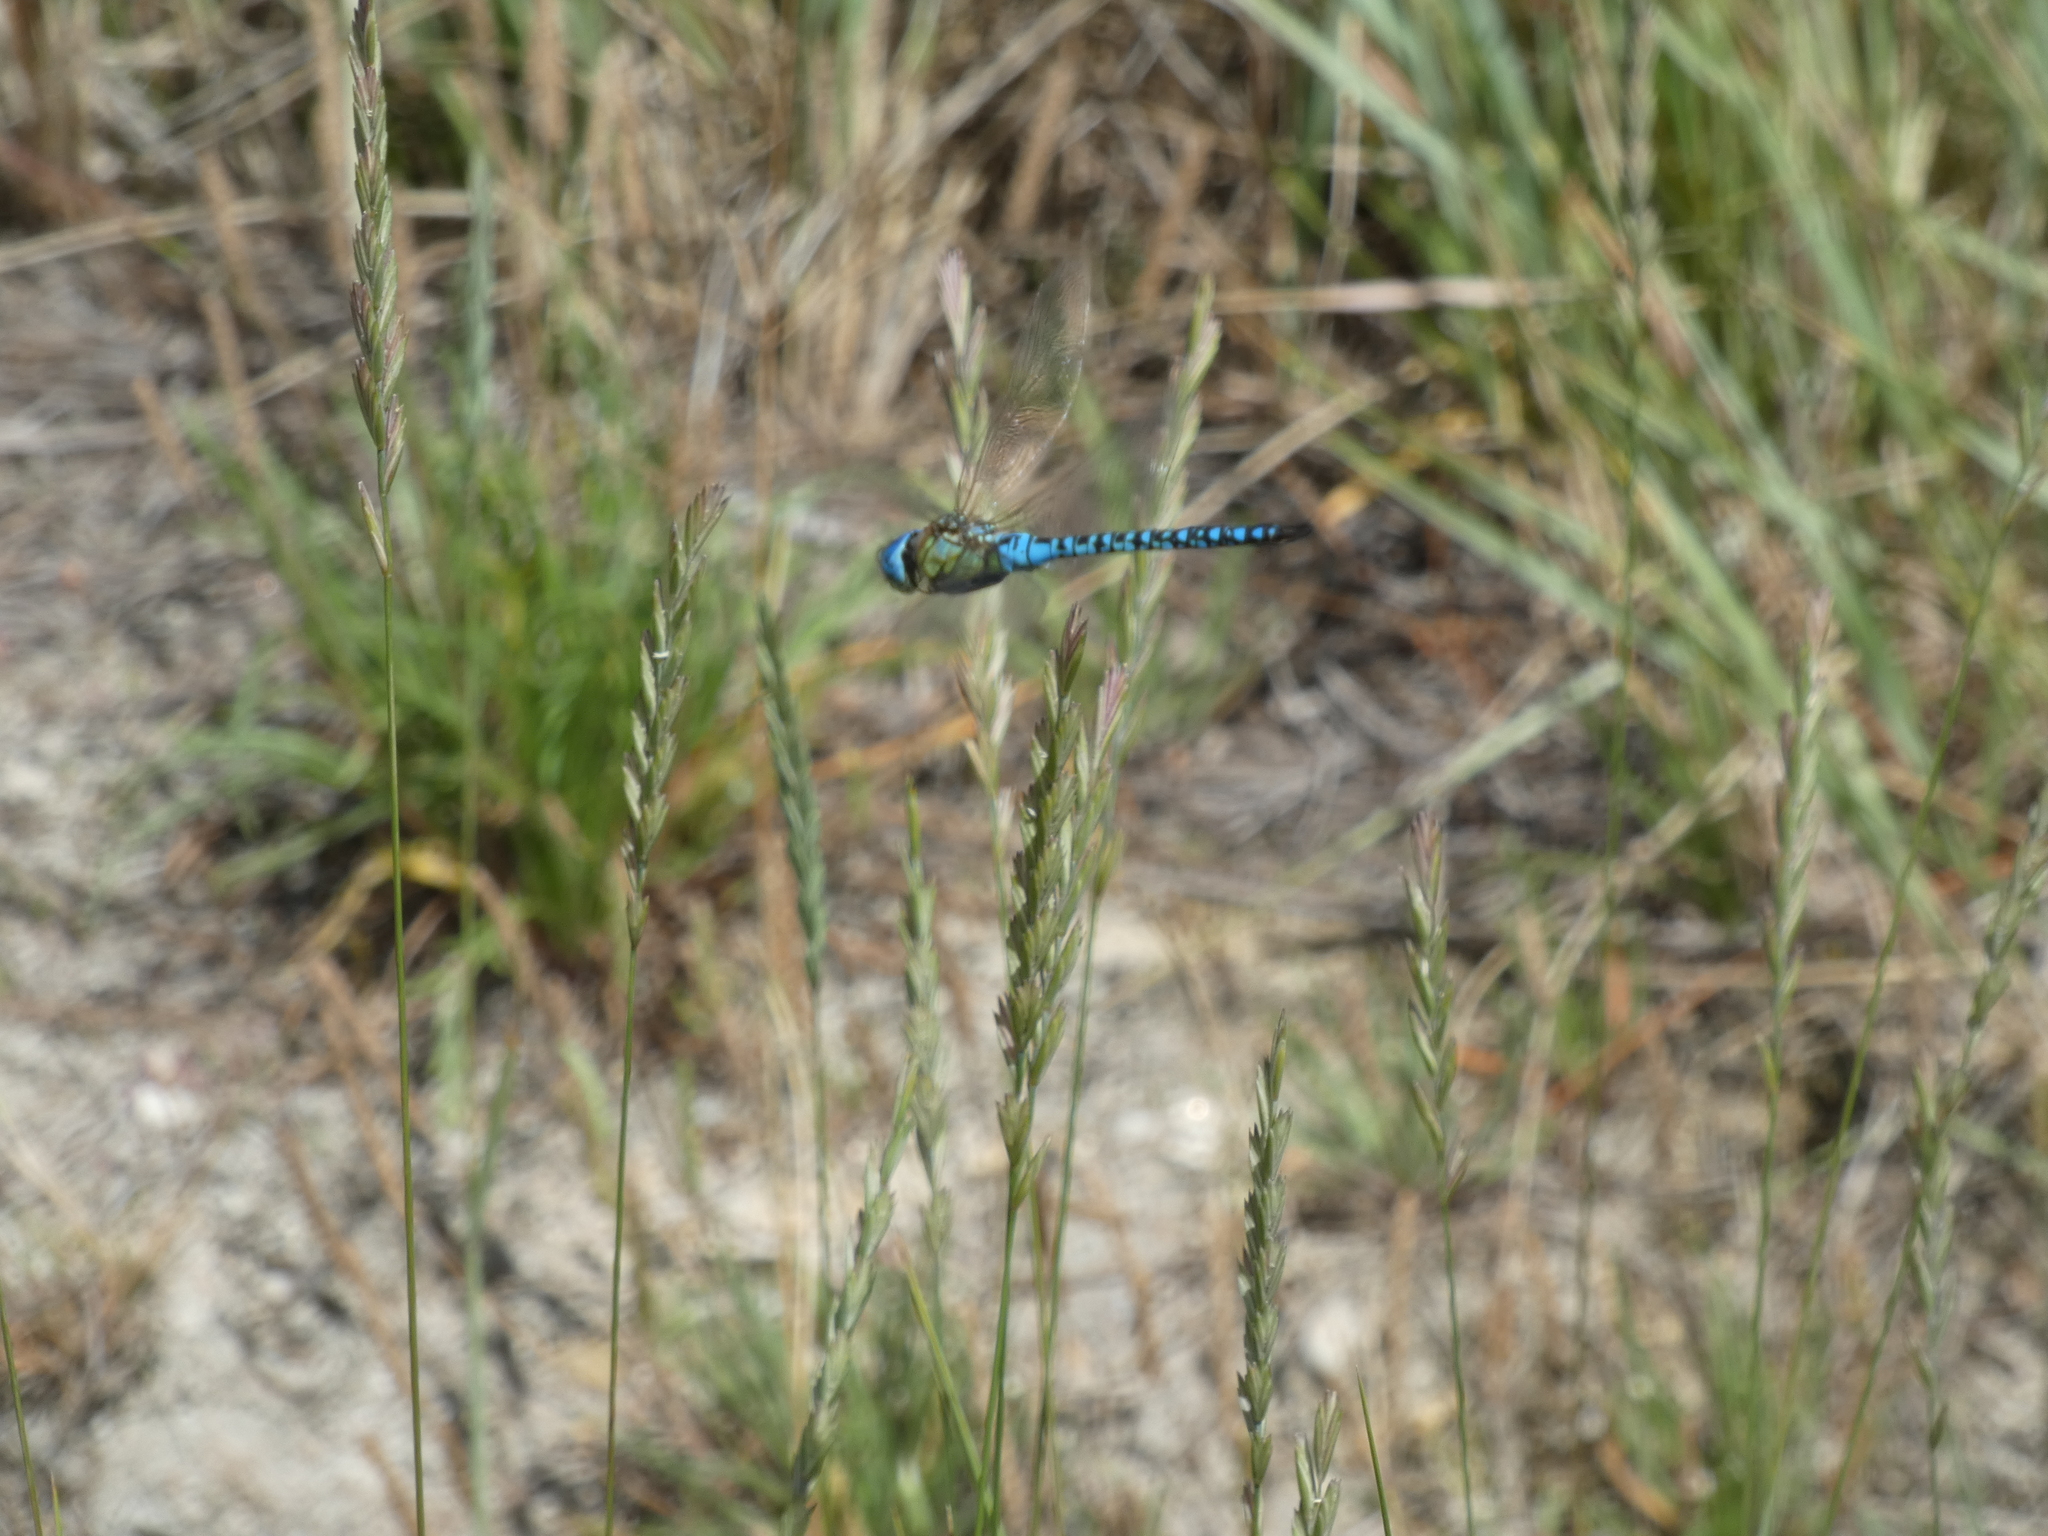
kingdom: Animalia
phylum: Arthropoda
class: Insecta
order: Odonata
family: Aeshnidae
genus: Aeshna
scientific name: Aeshna affinis
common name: Southern migrant hawker
